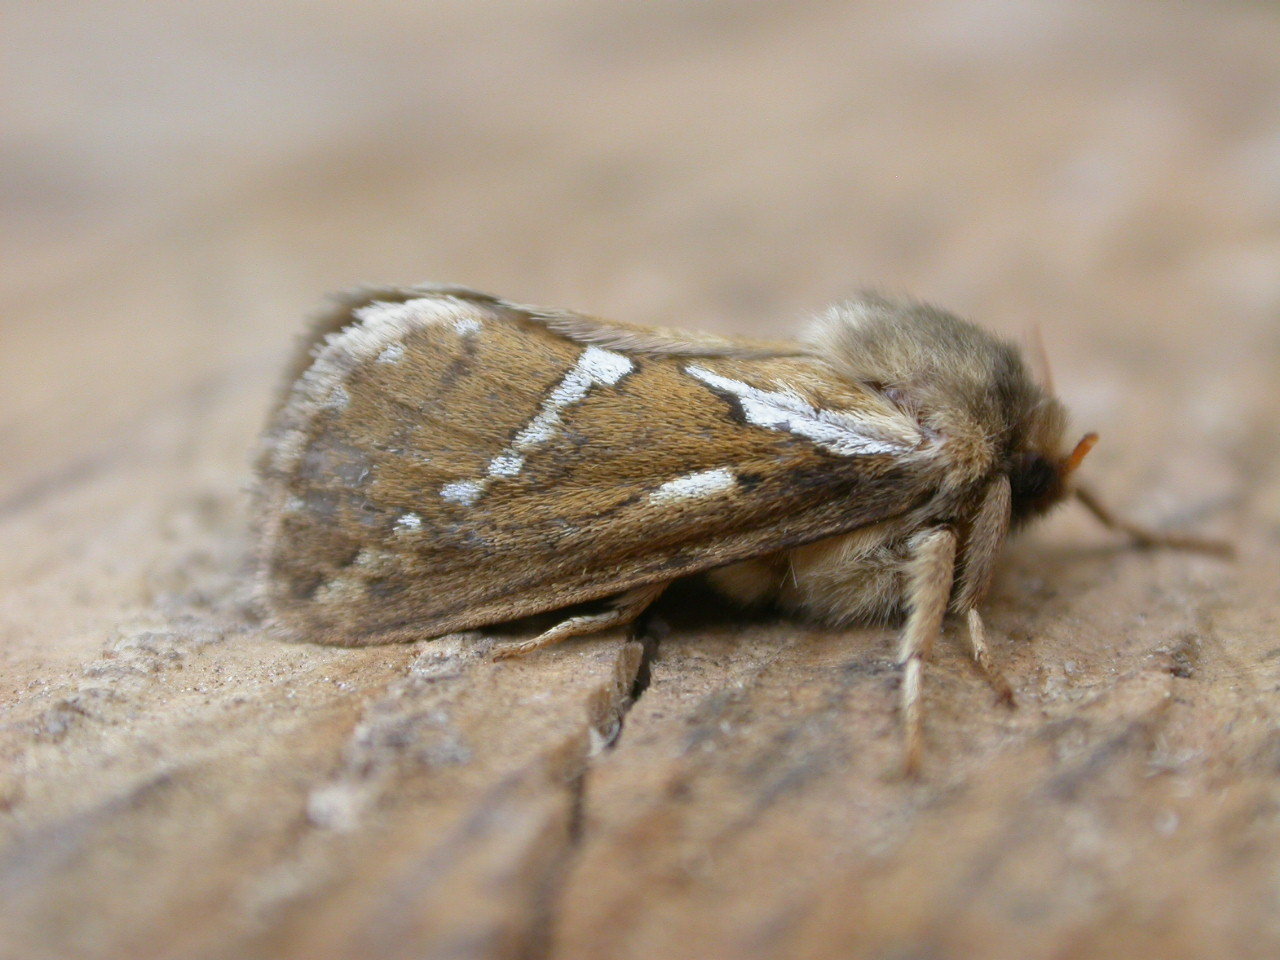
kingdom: Animalia
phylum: Arthropoda
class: Insecta
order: Lepidoptera
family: Hepialidae
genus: Korscheltellus
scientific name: Korscheltellus lupulina
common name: Common swift
